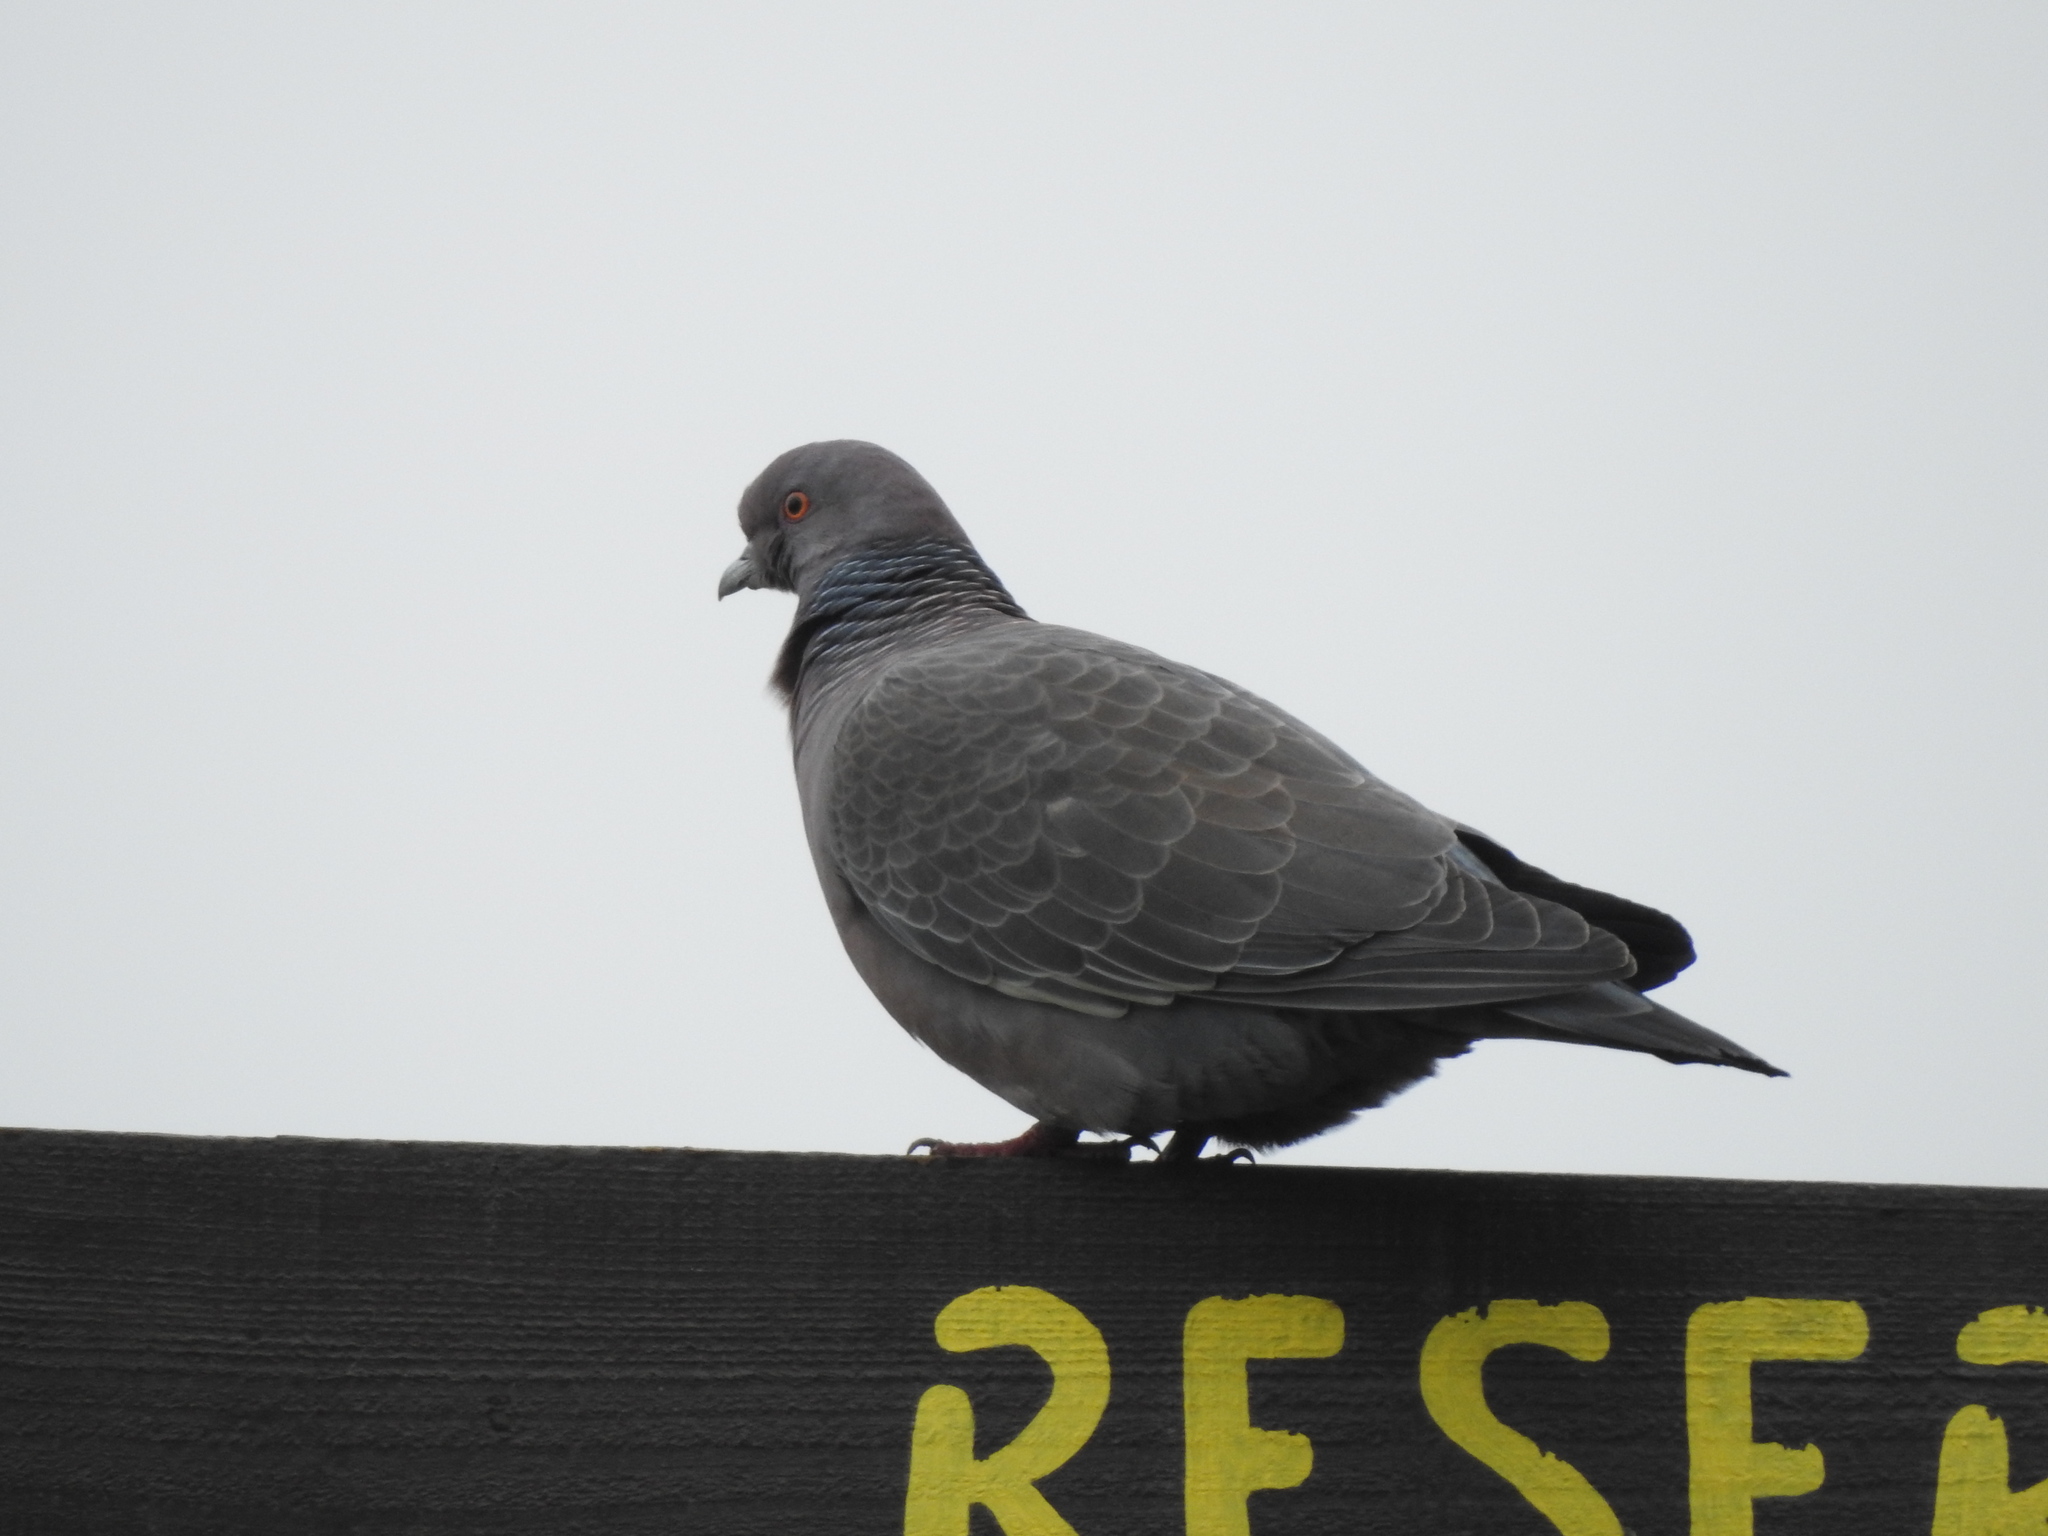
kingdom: Animalia
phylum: Chordata
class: Aves
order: Columbiformes
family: Columbidae
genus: Patagioenas
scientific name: Patagioenas picazuro
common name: Picazuro pigeon
